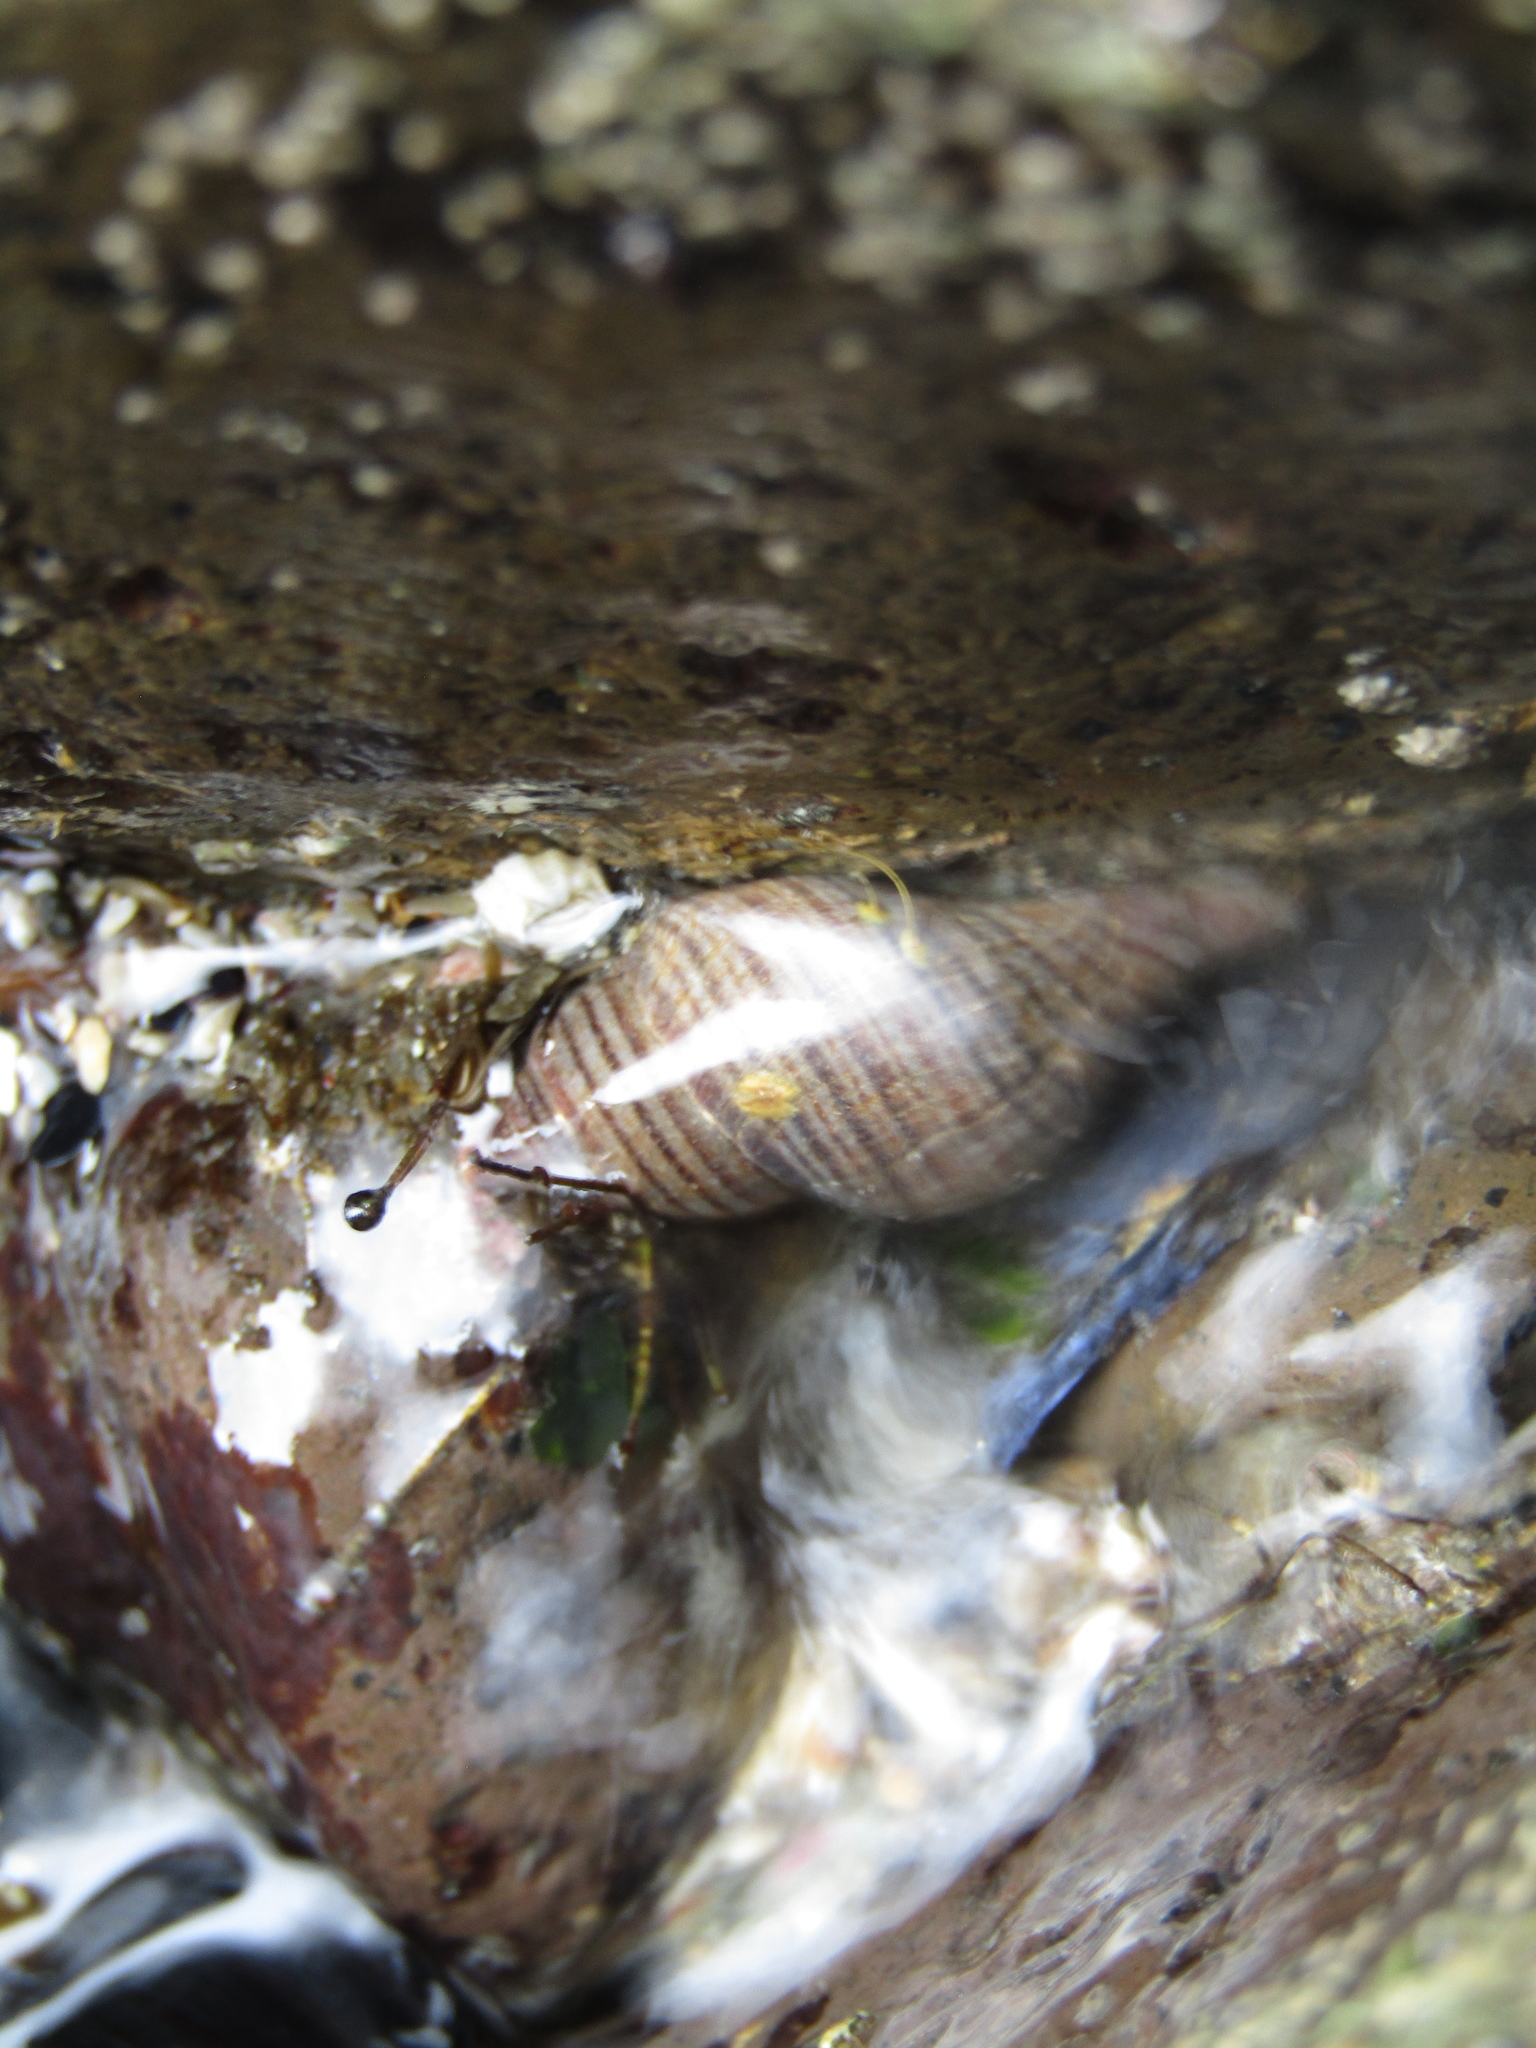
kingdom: Animalia
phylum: Mollusca
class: Gastropoda
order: Neogastropoda
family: Tudiclidae
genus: Buccinulum
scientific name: Buccinulum littorinoides
